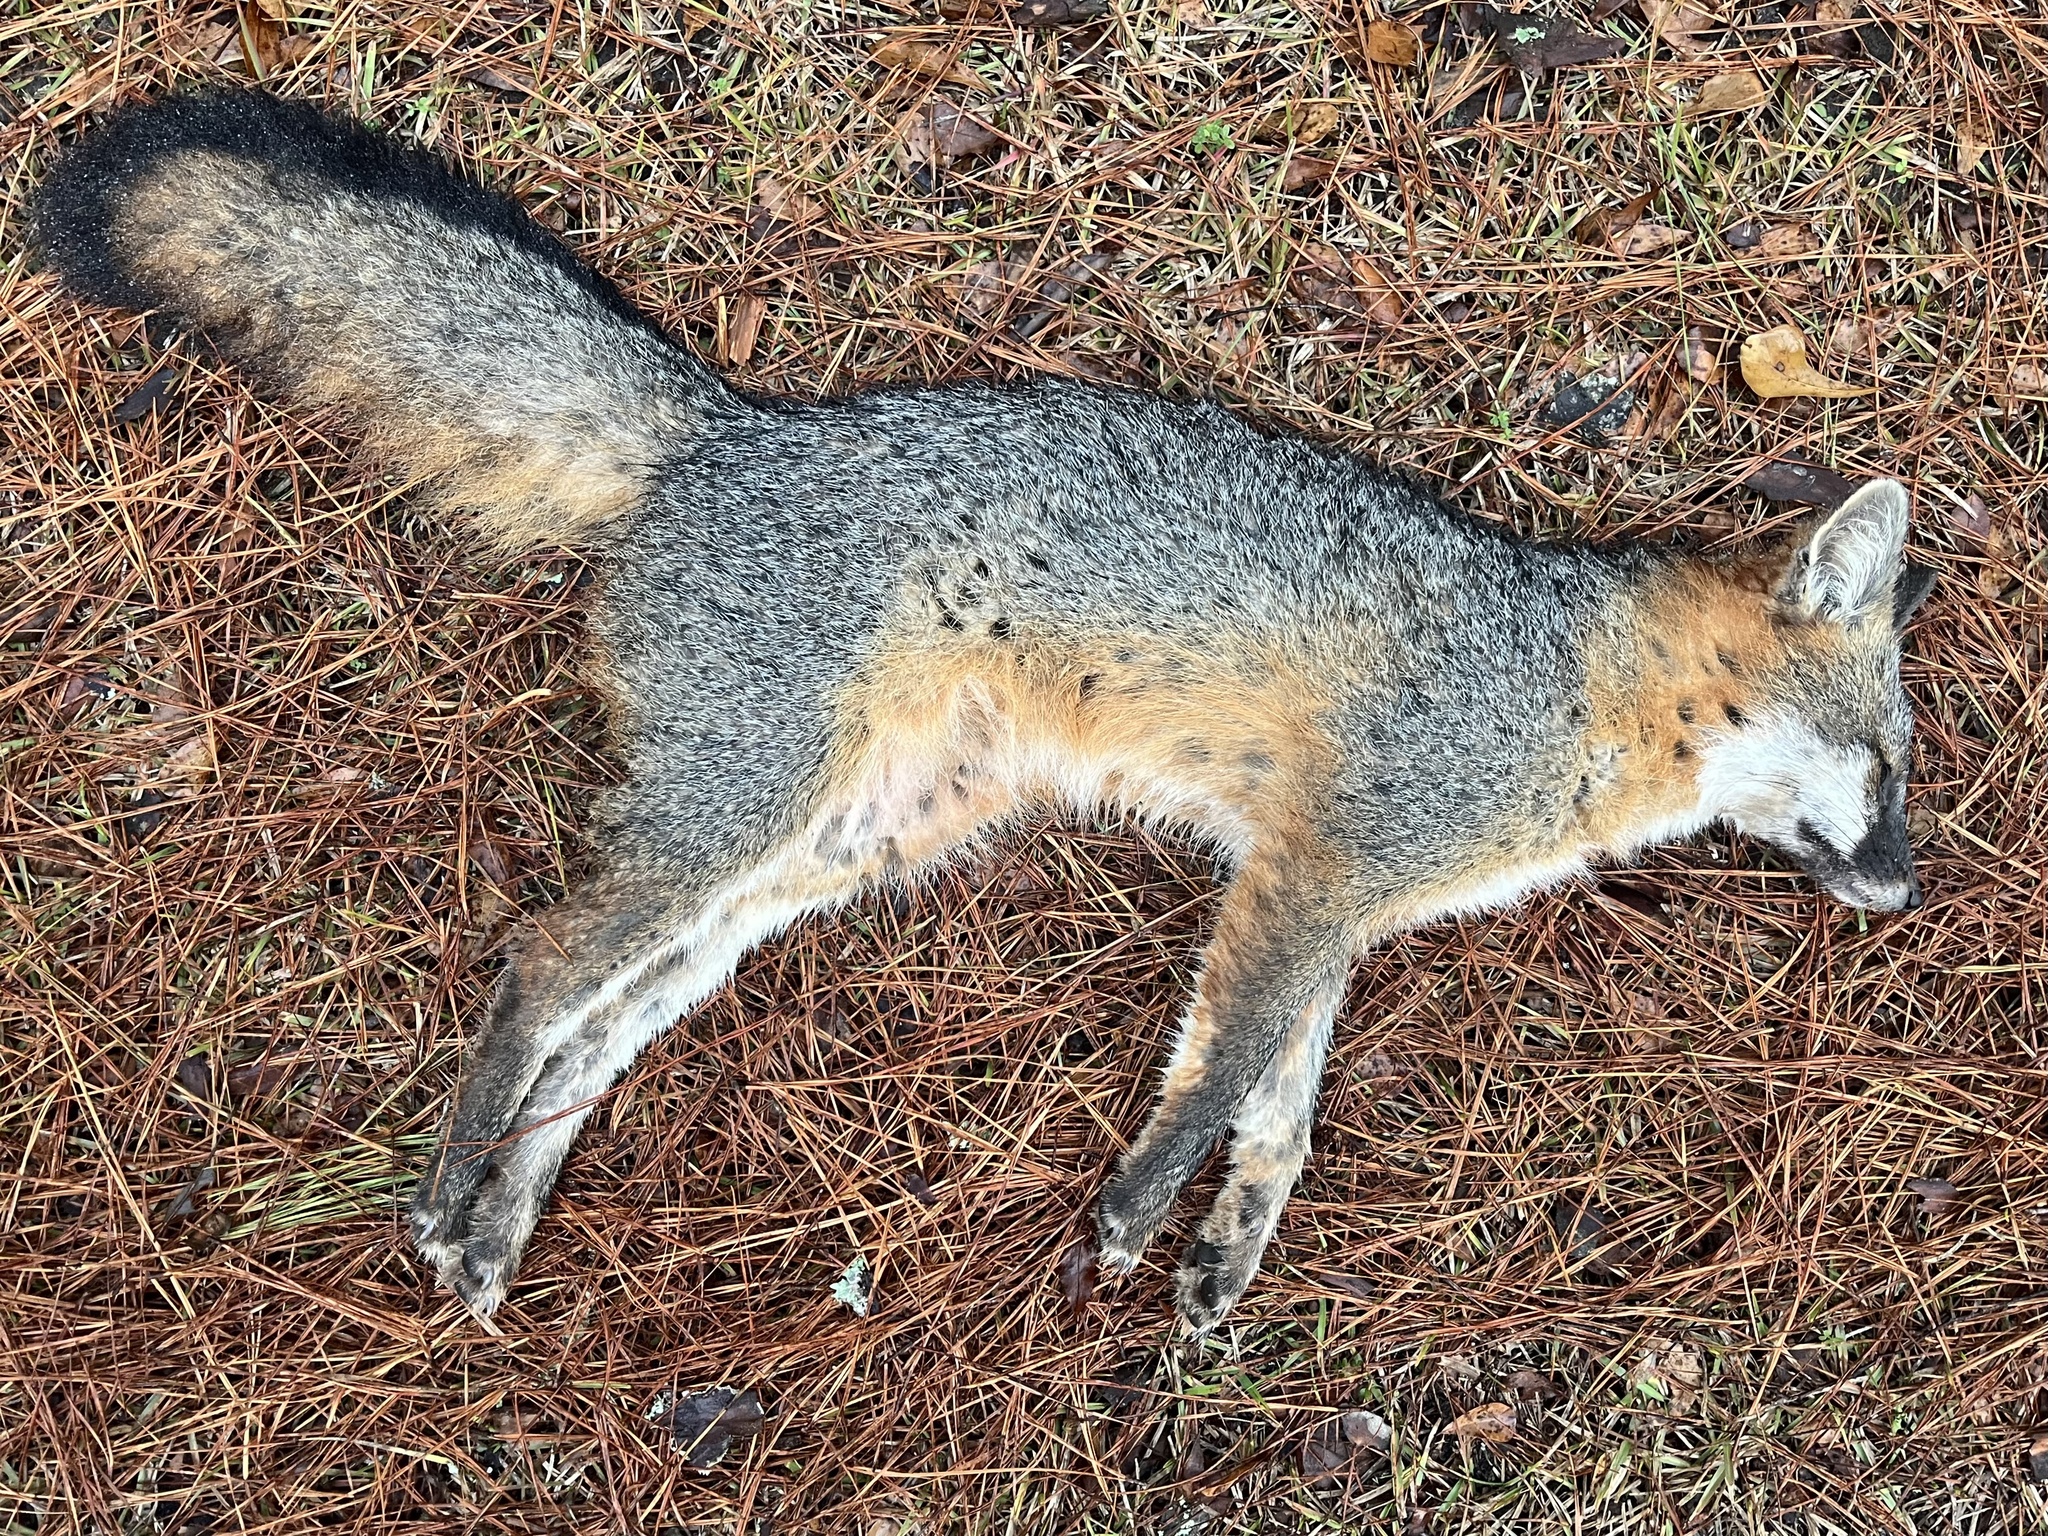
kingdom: Animalia
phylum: Chordata
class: Mammalia
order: Carnivora
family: Canidae
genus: Urocyon
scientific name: Urocyon cinereoargenteus
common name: Gray fox
